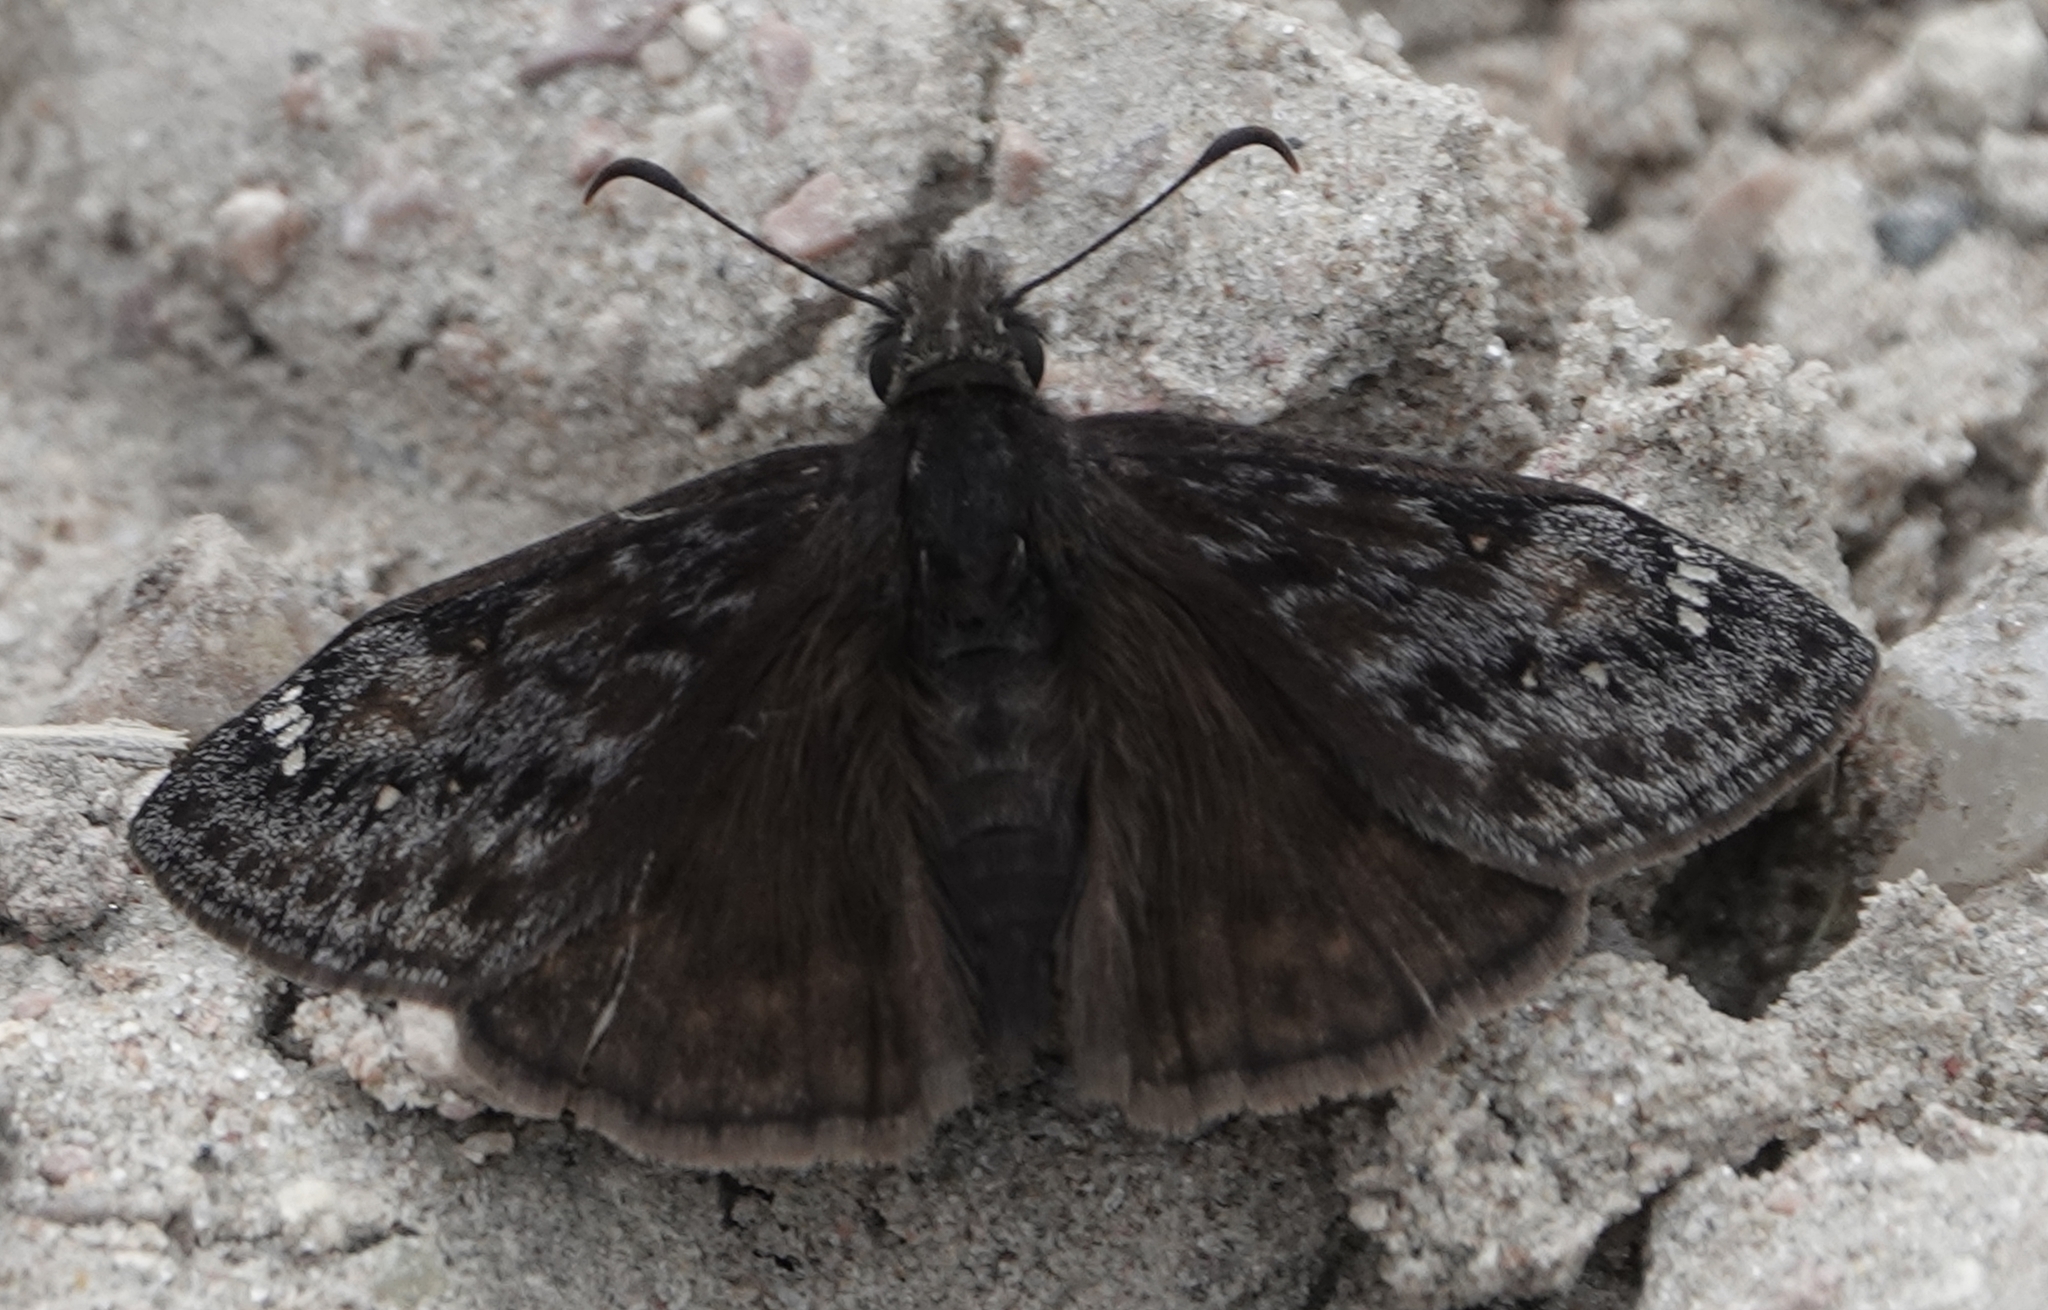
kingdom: Animalia
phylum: Arthropoda
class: Insecta
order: Lepidoptera
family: Hesperiidae
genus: Erynnis
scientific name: Erynnis juvenalis
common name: Juvenal's duskywing
